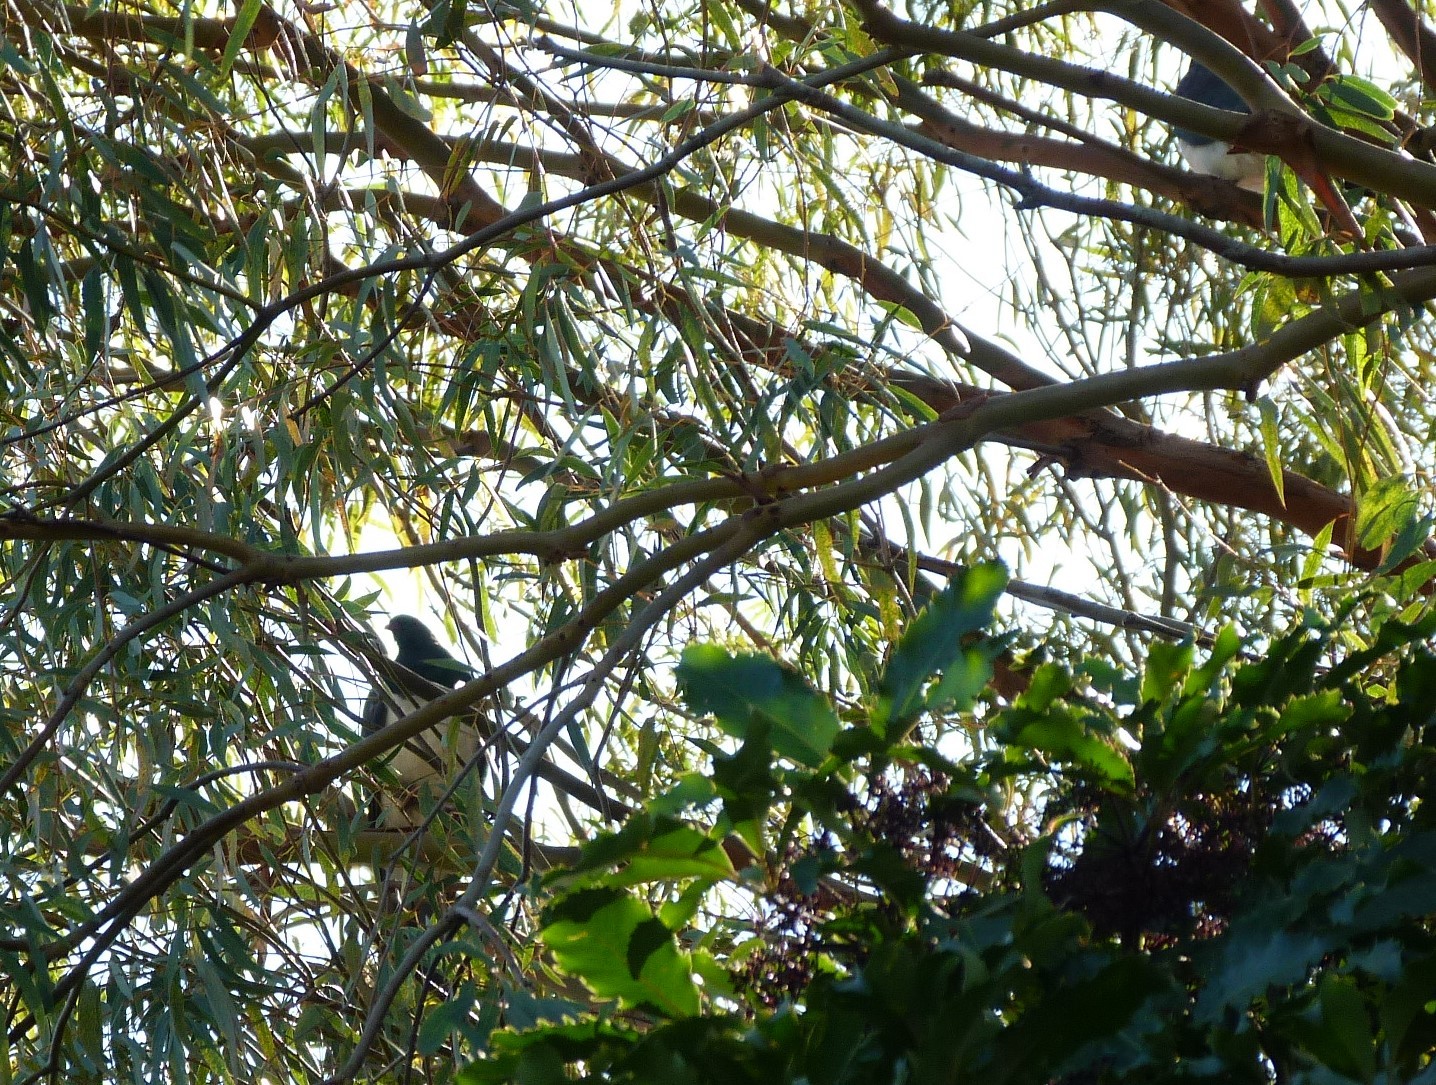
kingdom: Animalia
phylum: Chordata
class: Aves
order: Columbiformes
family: Columbidae
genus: Hemiphaga
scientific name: Hemiphaga novaeseelandiae
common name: New zealand pigeon
